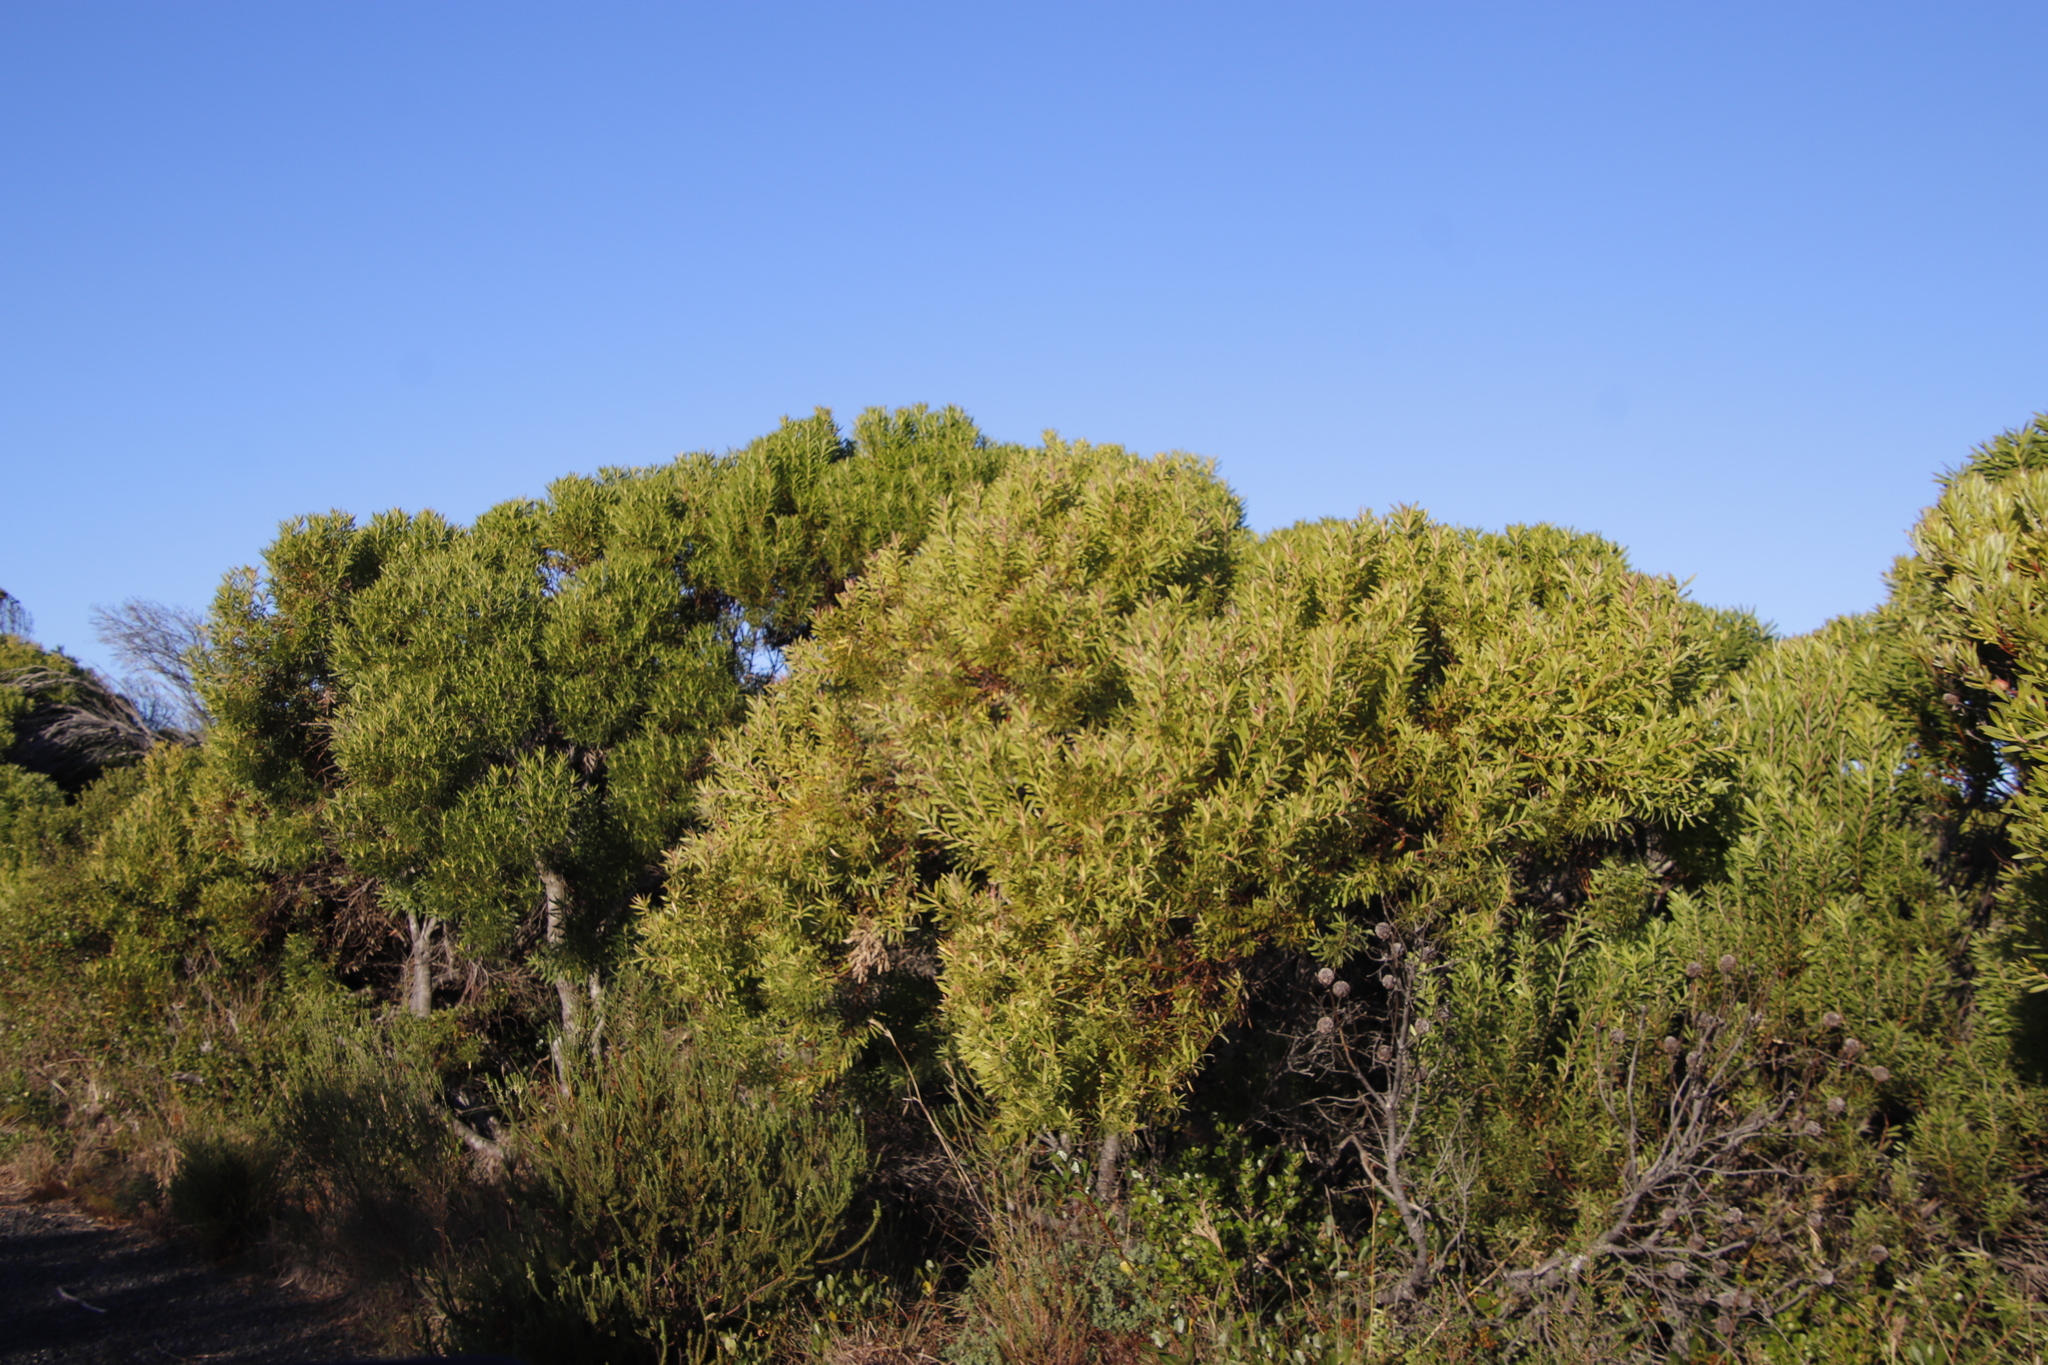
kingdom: Plantae
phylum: Tracheophyta
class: Magnoliopsida
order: Proteales
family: Proteaceae
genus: Leucadendron
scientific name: Leucadendron coniferum
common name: Dune conebush
